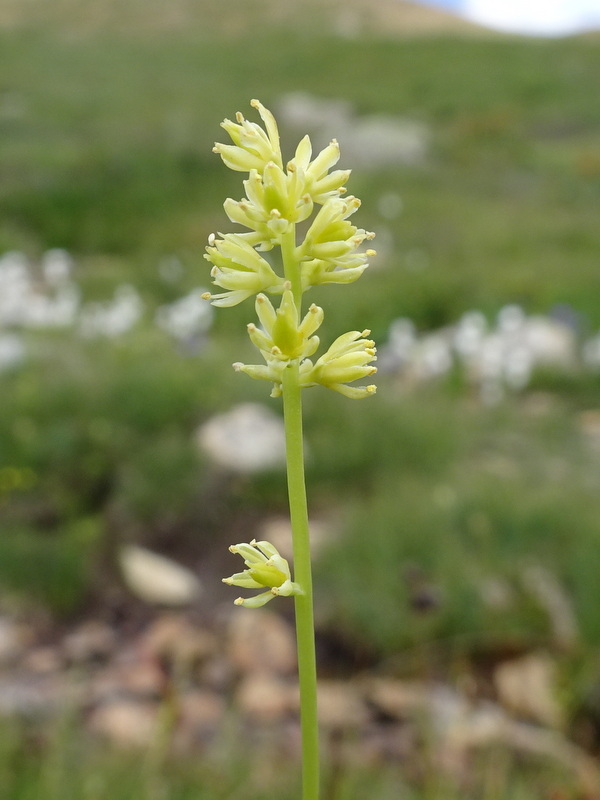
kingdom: Plantae
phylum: Tracheophyta
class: Liliopsida
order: Alismatales
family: Tofieldiaceae
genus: Tofieldia
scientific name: Tofieldia calyculata
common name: German-asphodel
